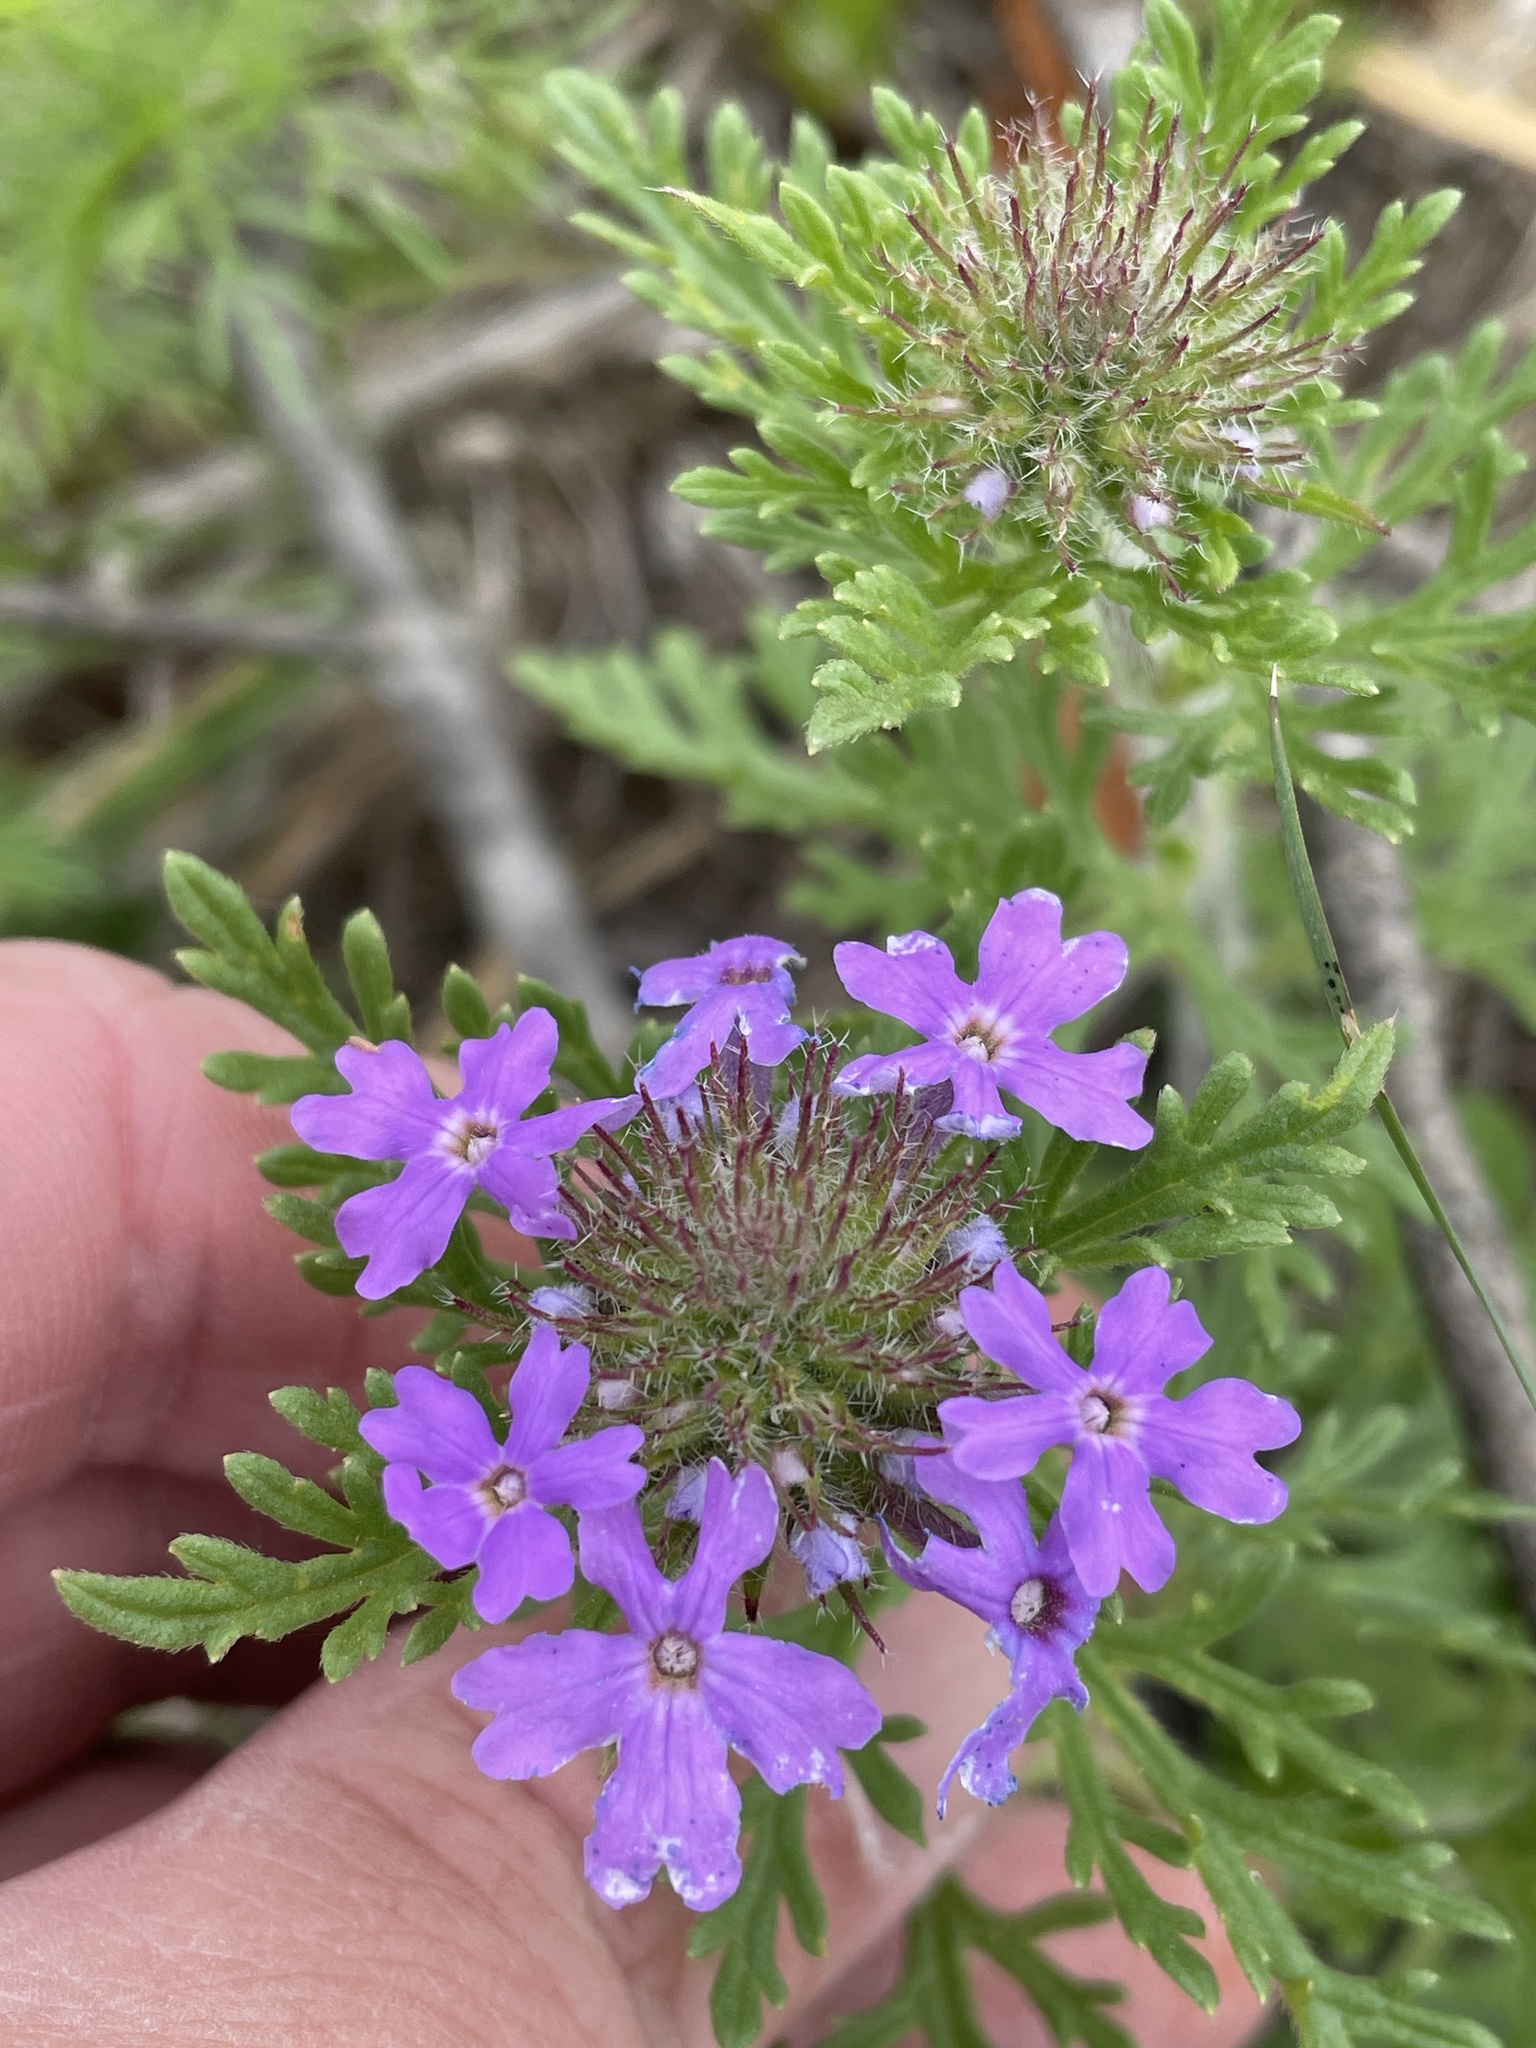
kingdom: Plantae
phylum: Tracheophyta
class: Magnoliopsida
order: Lamiales
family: Verbenaceae
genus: Verbena
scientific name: Verbena bipinnatifida
